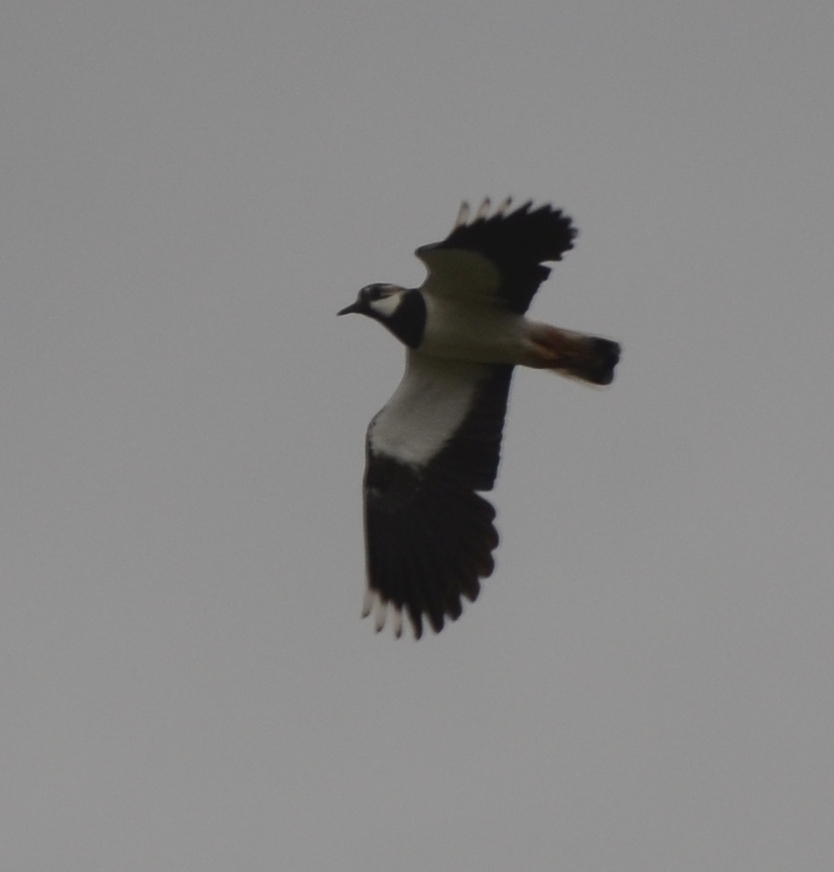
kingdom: Animalia
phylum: Chordata
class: Aves
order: Charadriiformes
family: Charadriidae
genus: Vanellus
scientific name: Vanellus vanellus
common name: Northern lapwing
